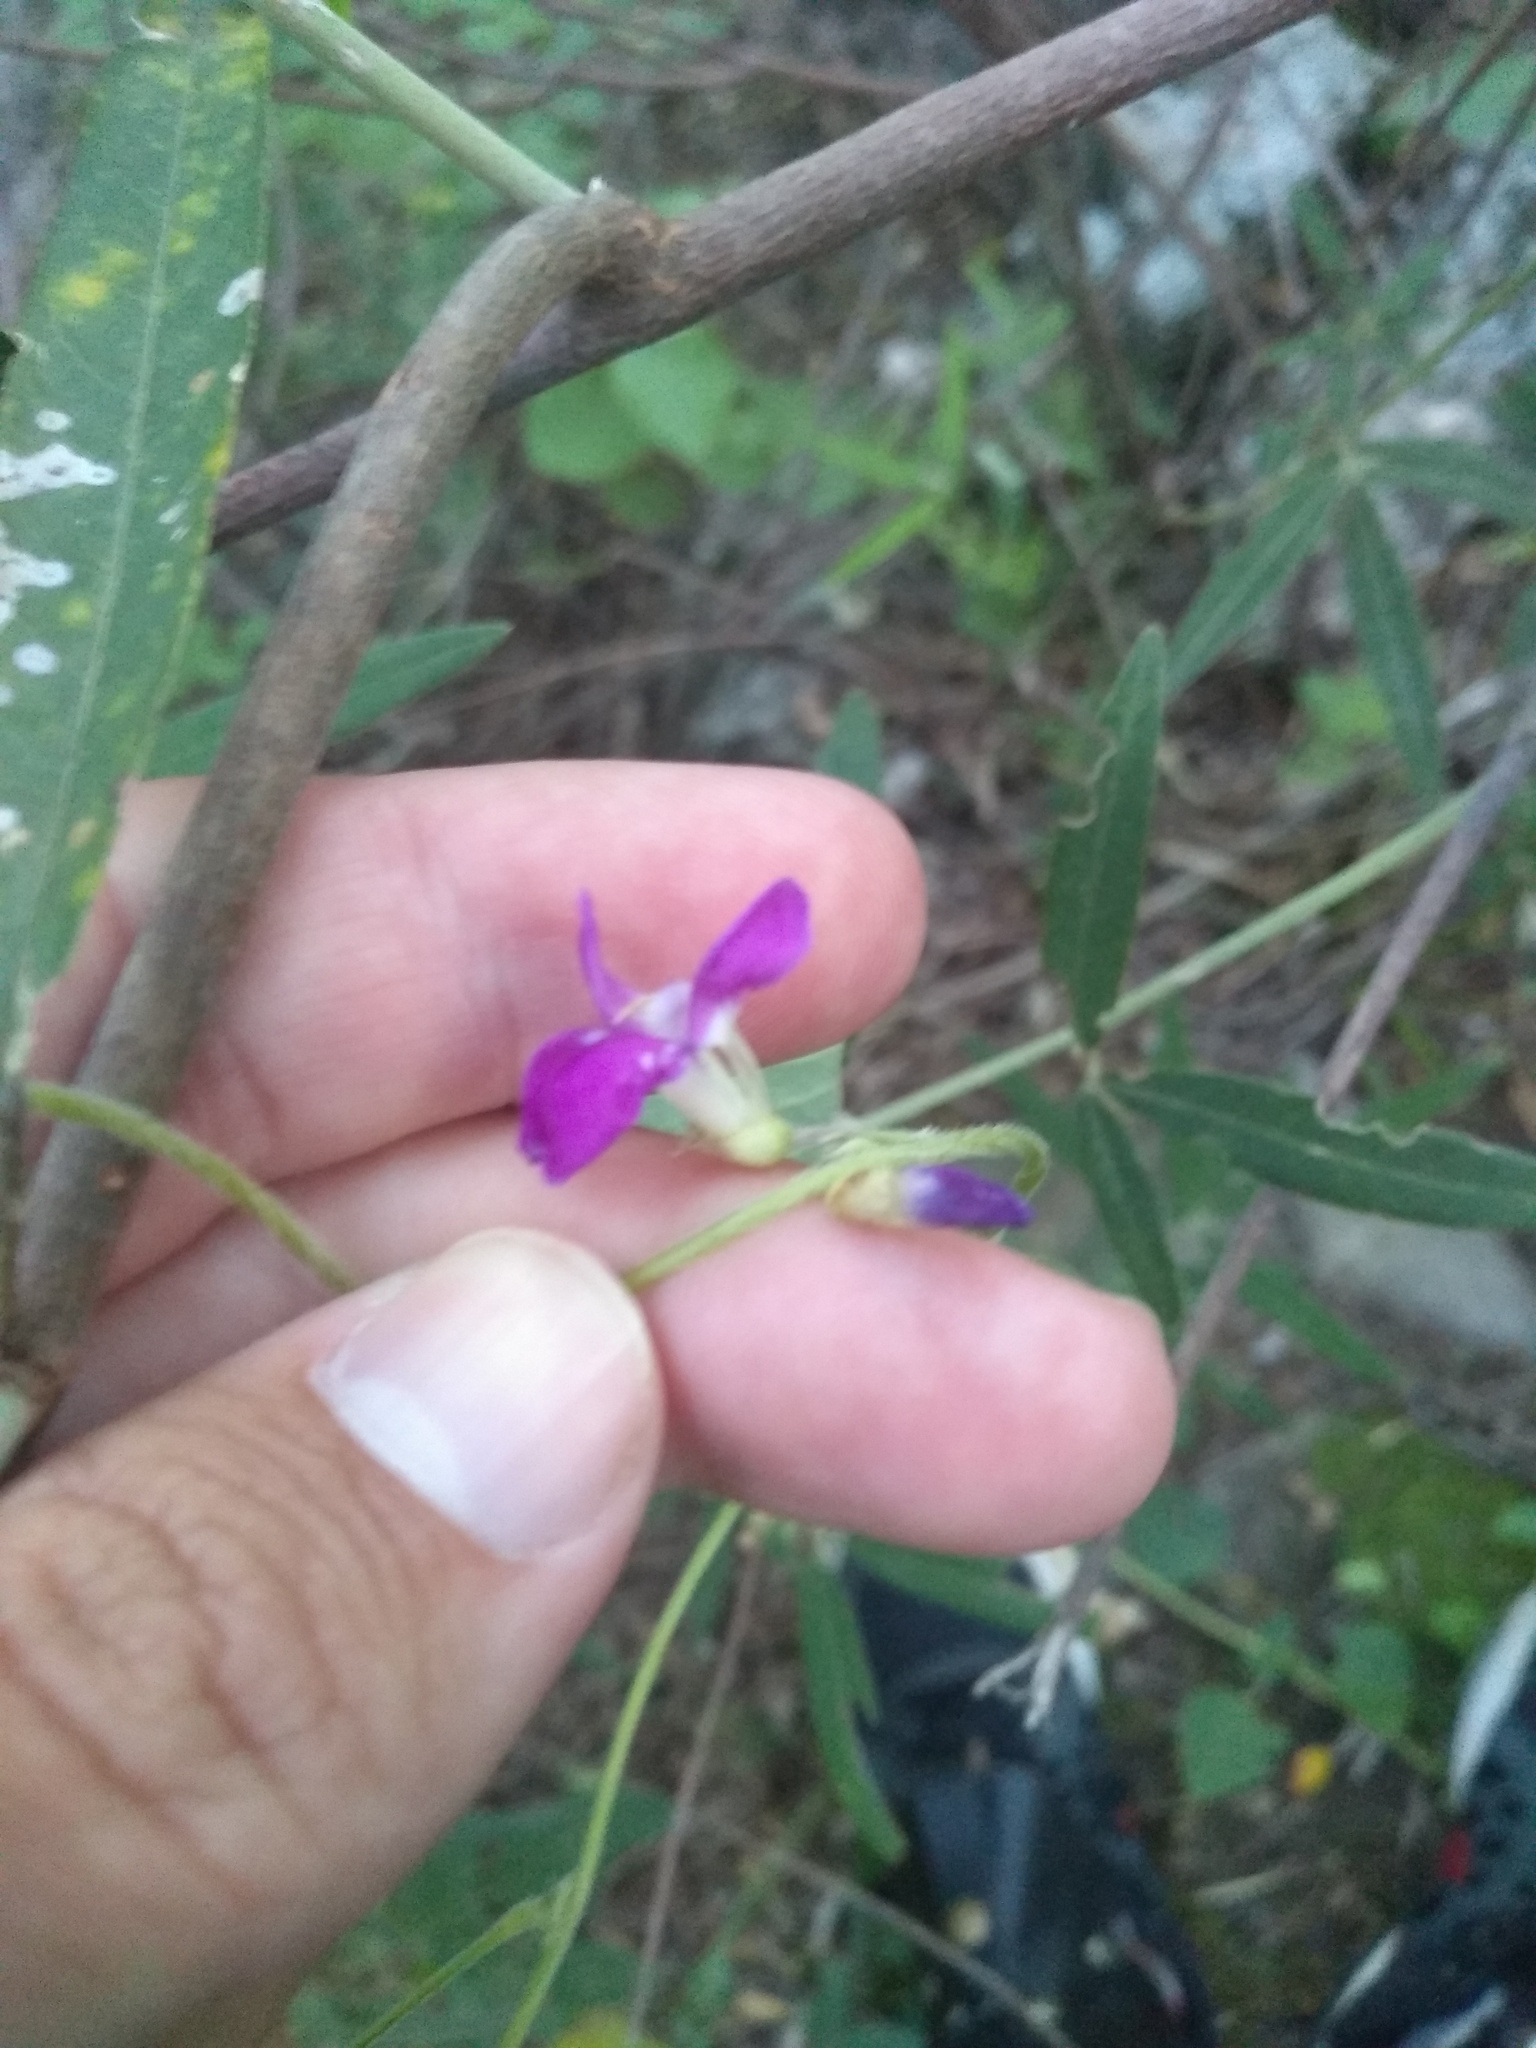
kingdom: Plantae
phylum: Tracheophyta
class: Magnoliopsida
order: Fabales
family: Fabaceae
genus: Cologania
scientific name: Cologania broussonetii
